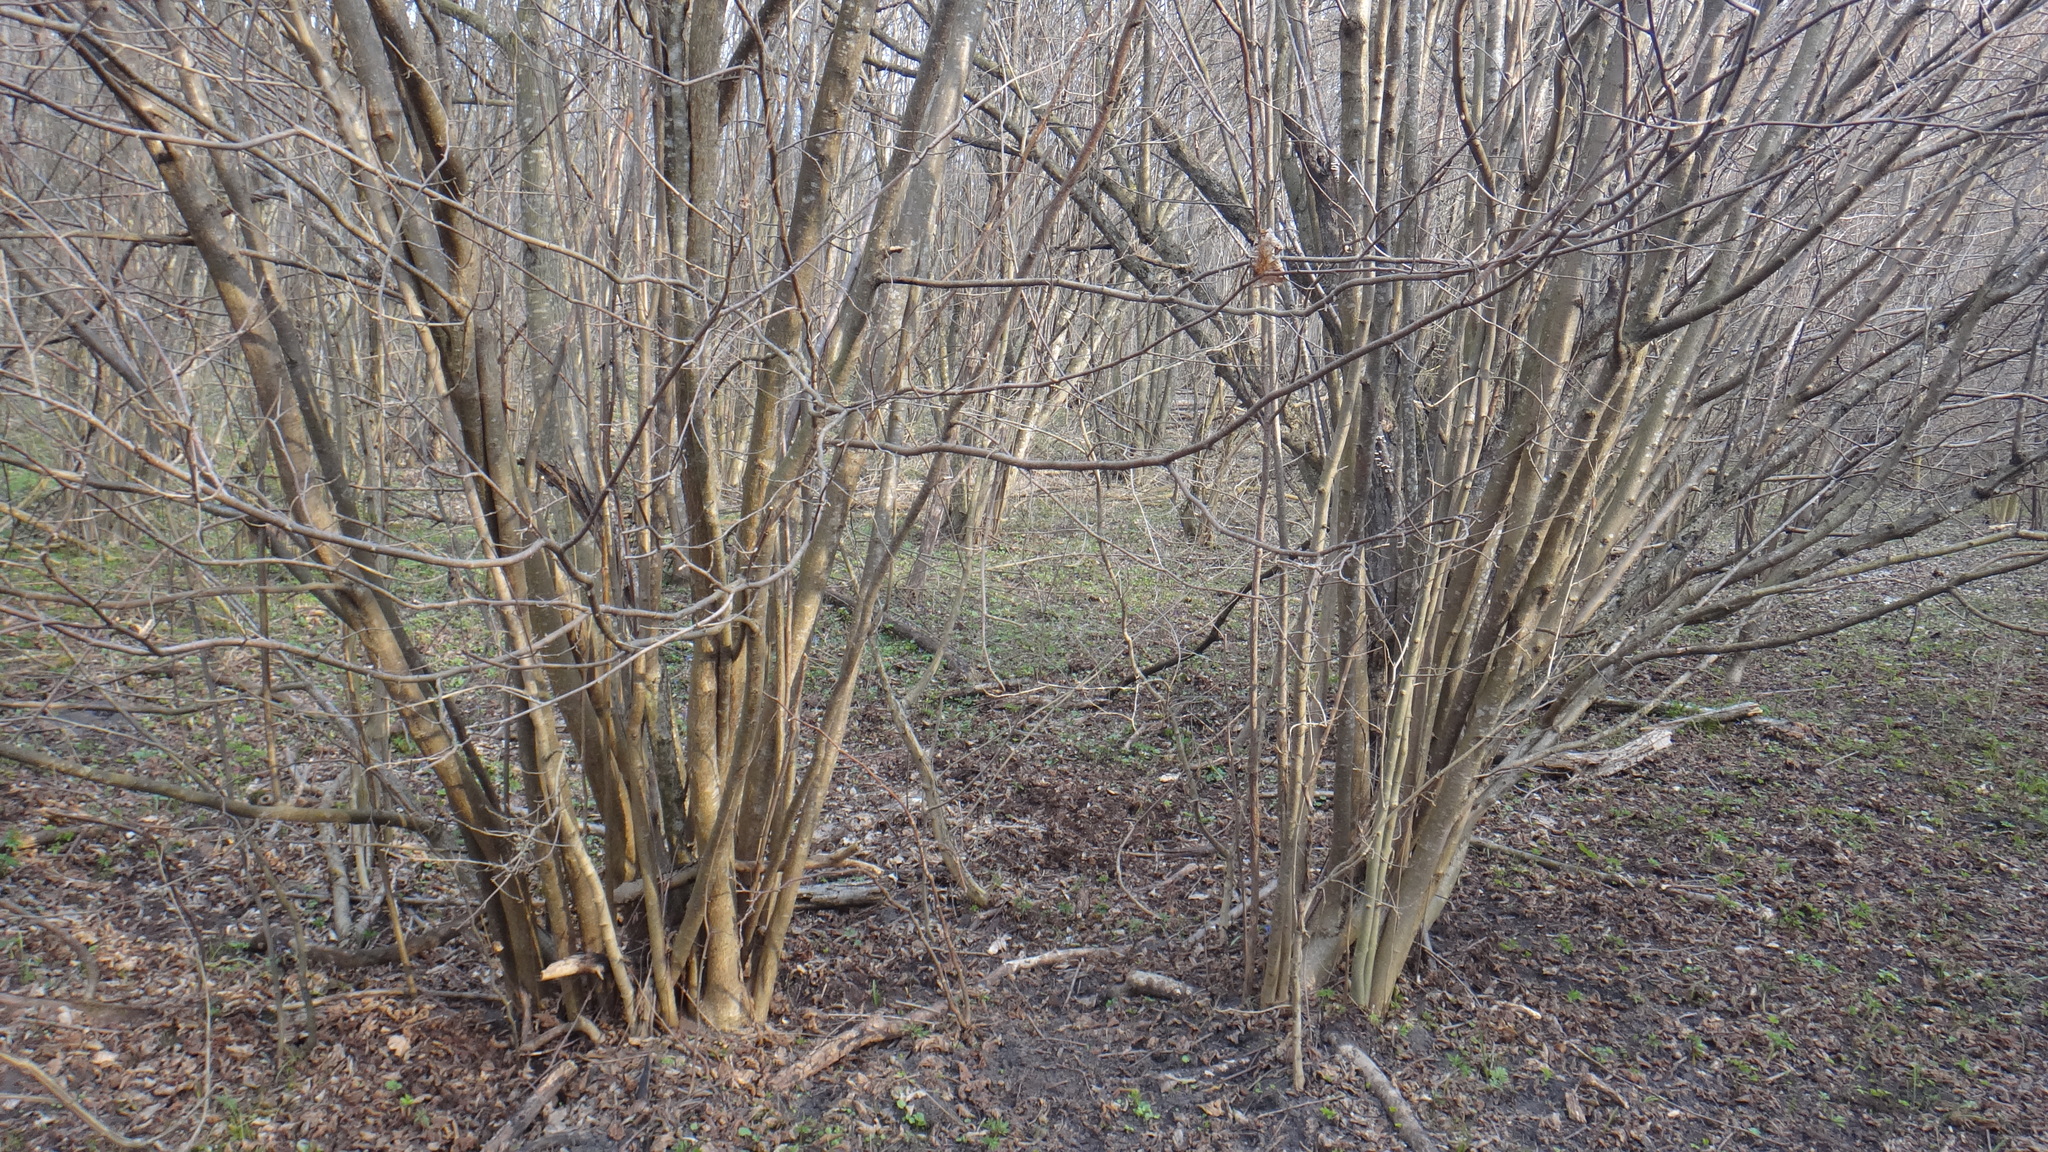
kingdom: Plantae
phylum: Tracheophyta
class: Magnoliopsida
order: Fagales
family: Betulaceae
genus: Corylus
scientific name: Corylus avellana
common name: European hazel
